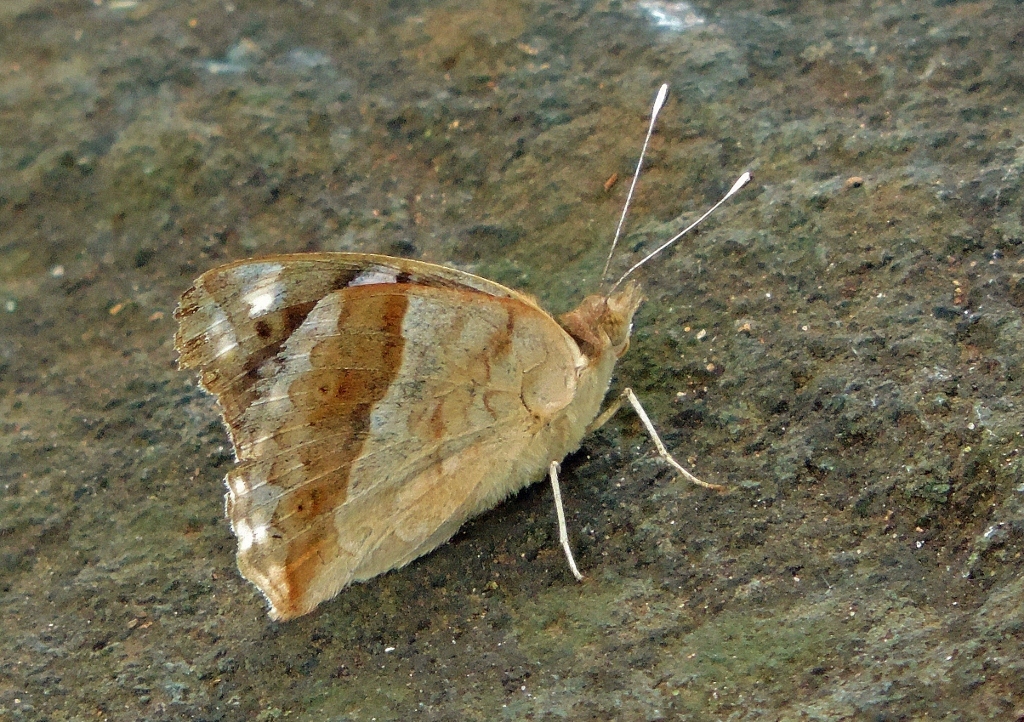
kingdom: Animalia
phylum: Arthropoda
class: Insecta
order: Lepidoptera
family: Nymphalidae
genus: Junonia
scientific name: Junonia oenone
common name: Dark blue pansy
